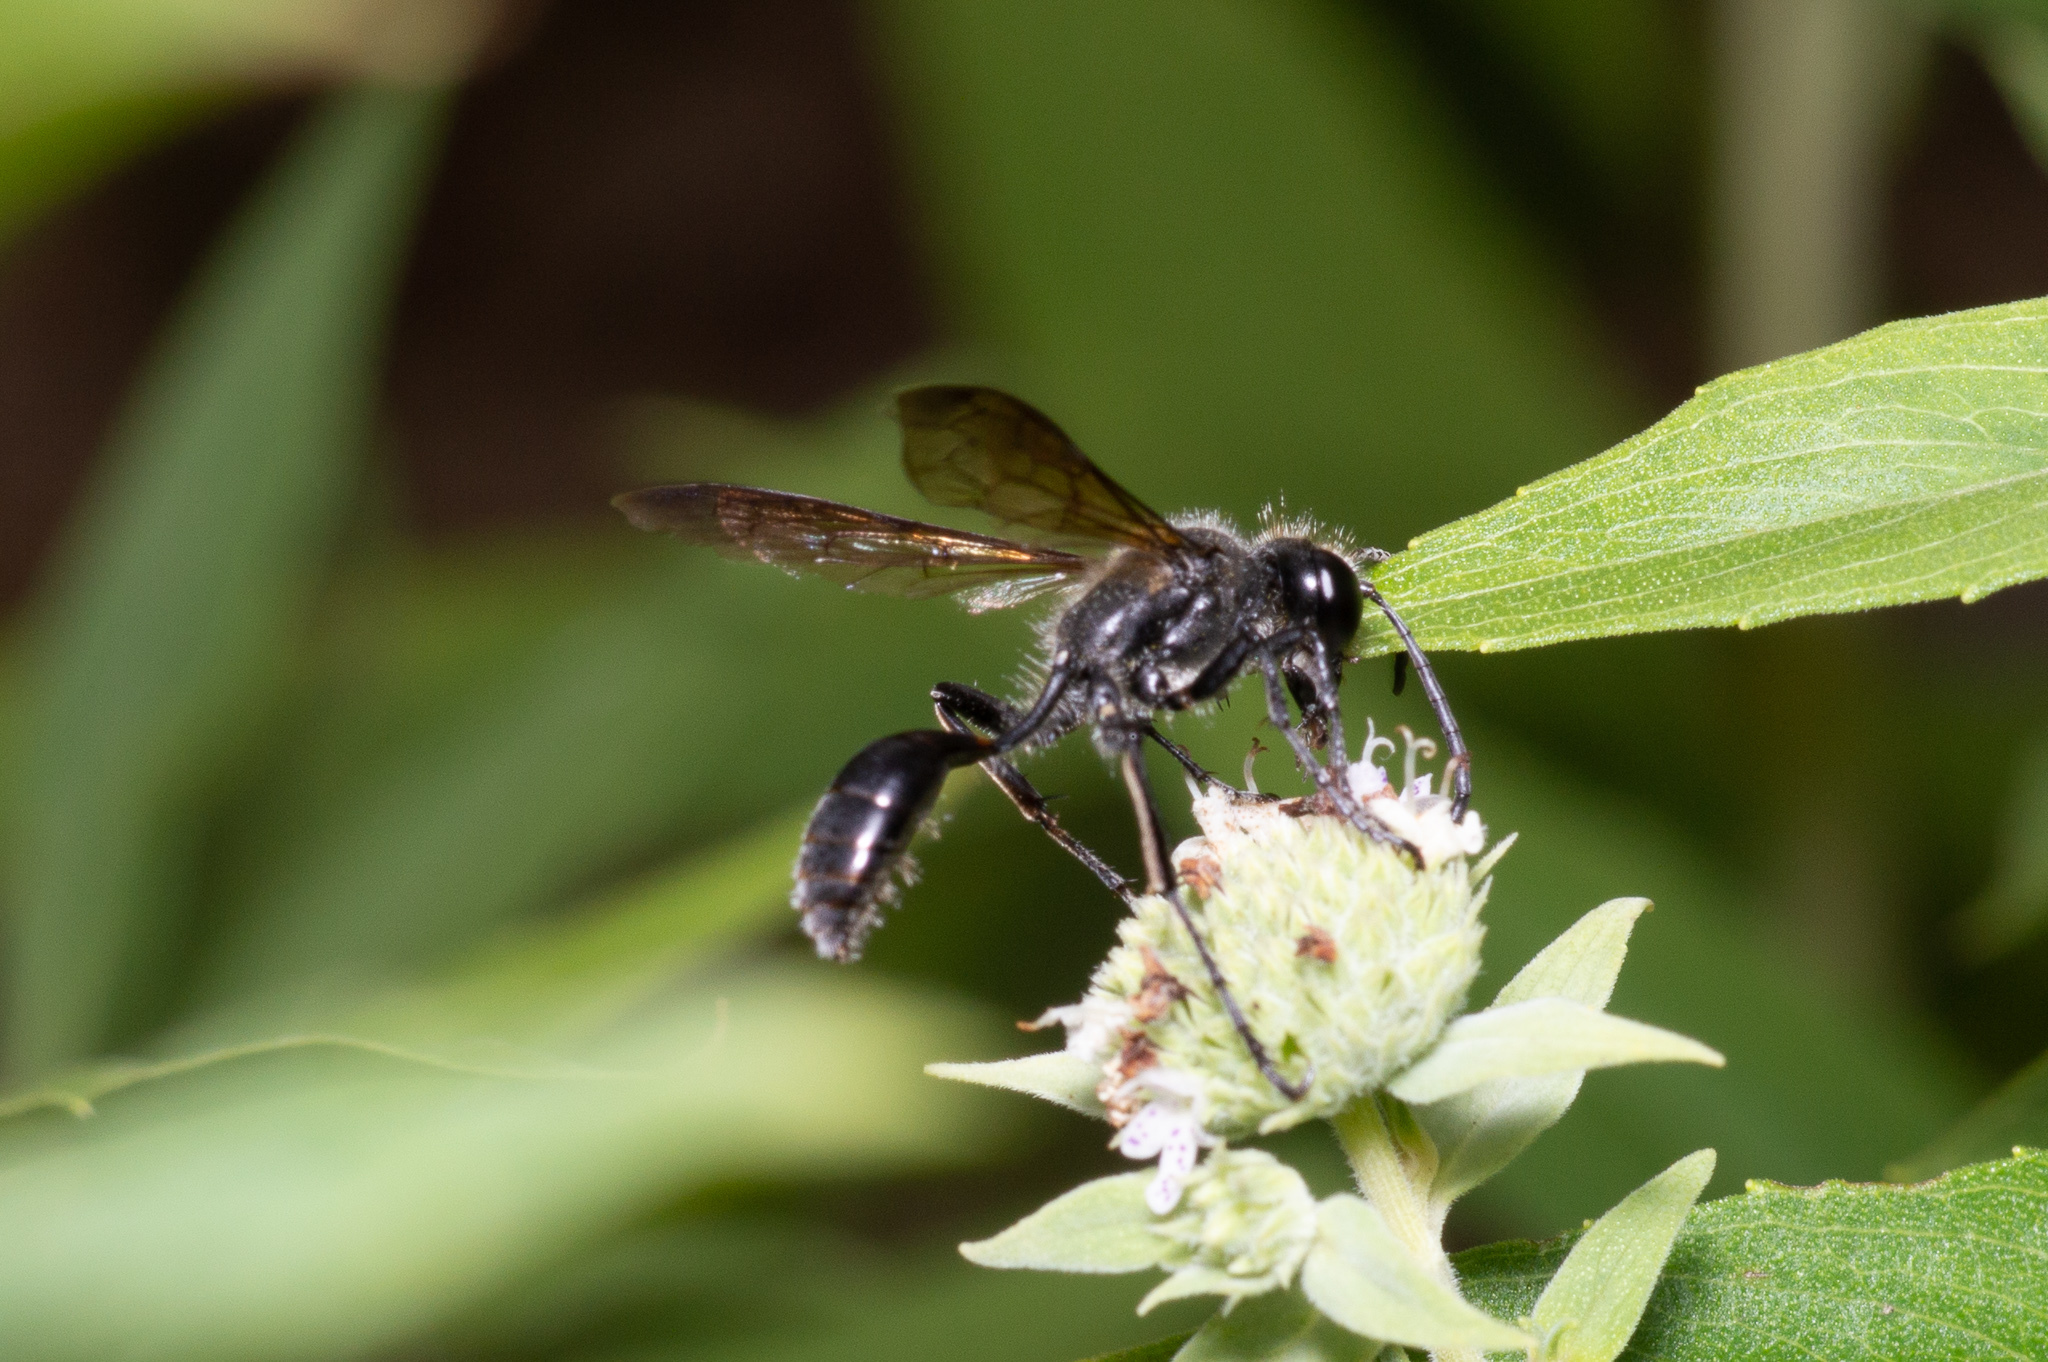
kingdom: Animalia
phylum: Arthropoda
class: Insecta
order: Hymenoptera
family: Sphecidae
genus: Isodontia
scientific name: Isodontia mexicana
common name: Mud dauber
